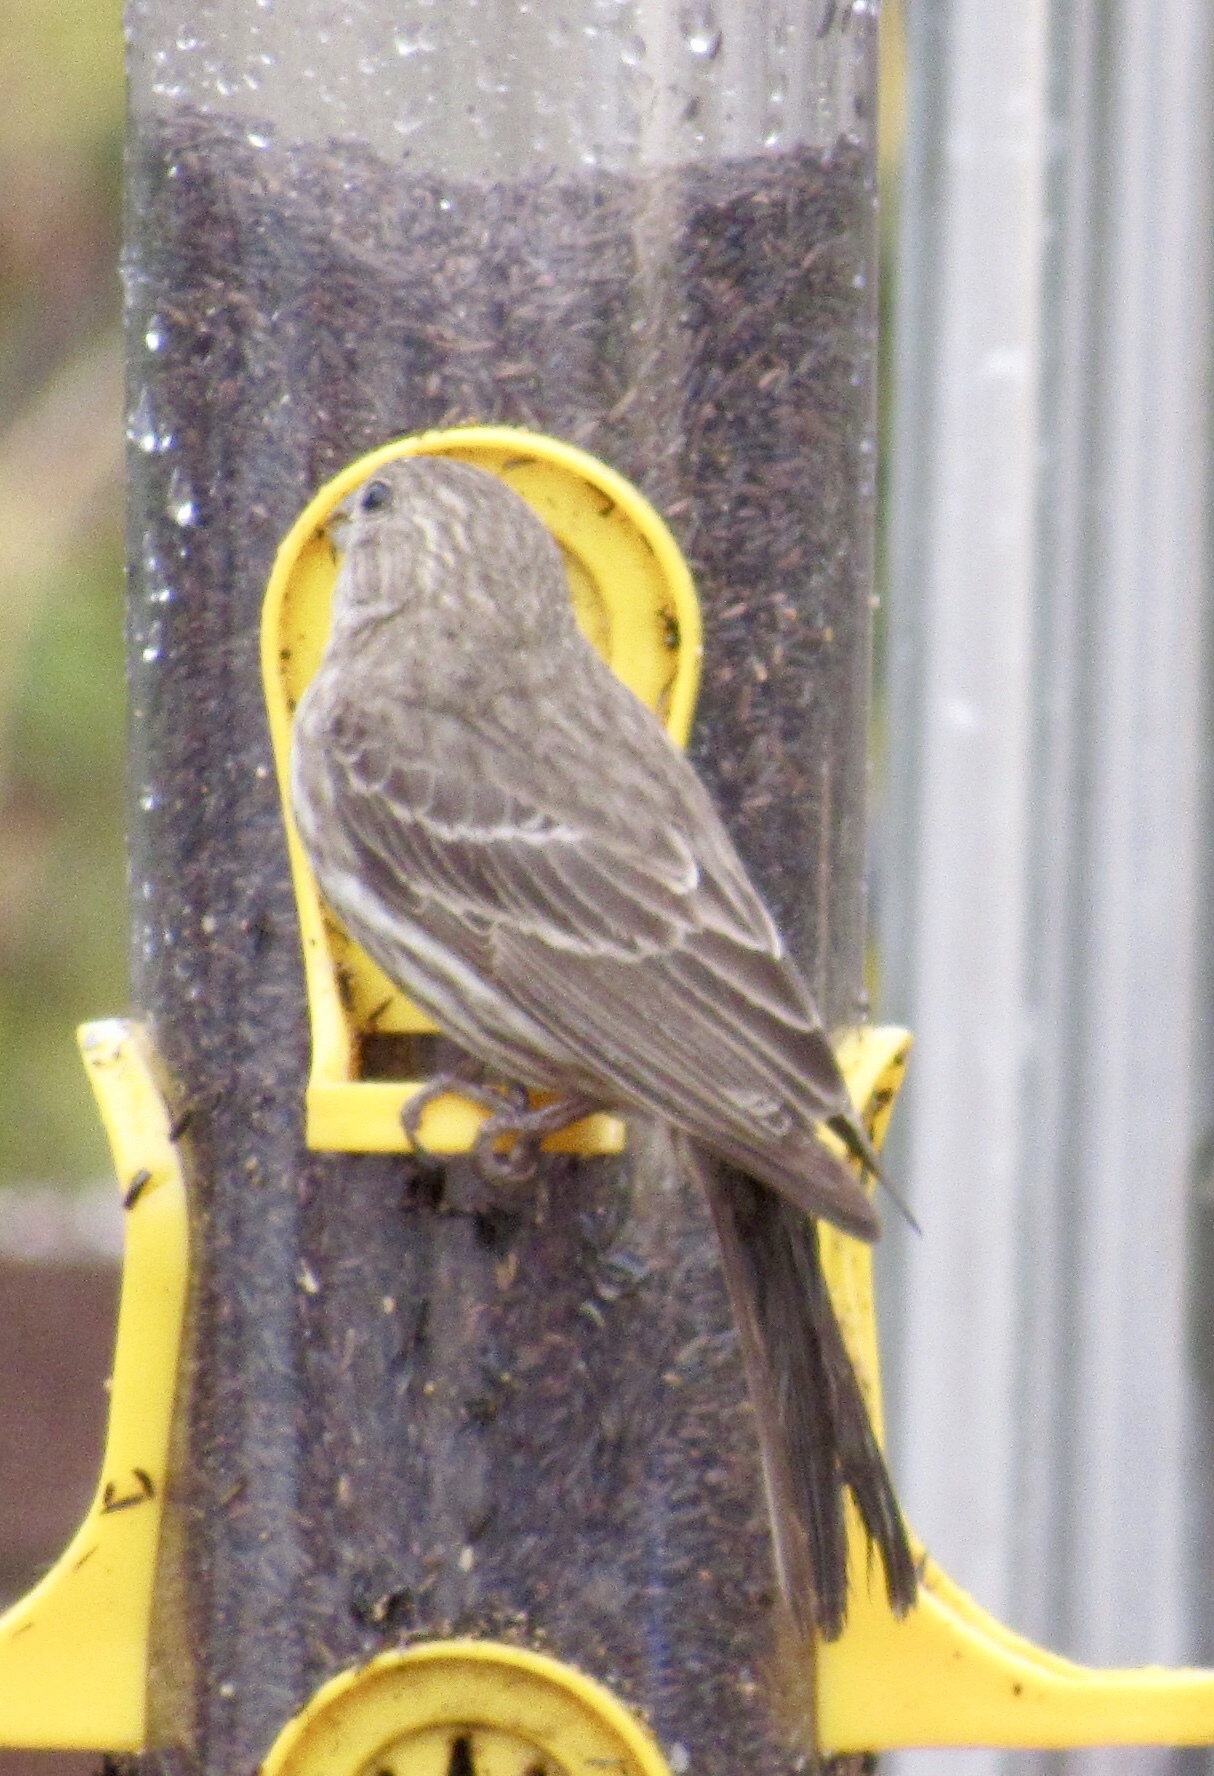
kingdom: Animalia
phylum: Chordata
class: Aves
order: Passeriformes
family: Fringillidae
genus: Haemorhous
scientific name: Haemorhous mexicanus
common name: House finch
